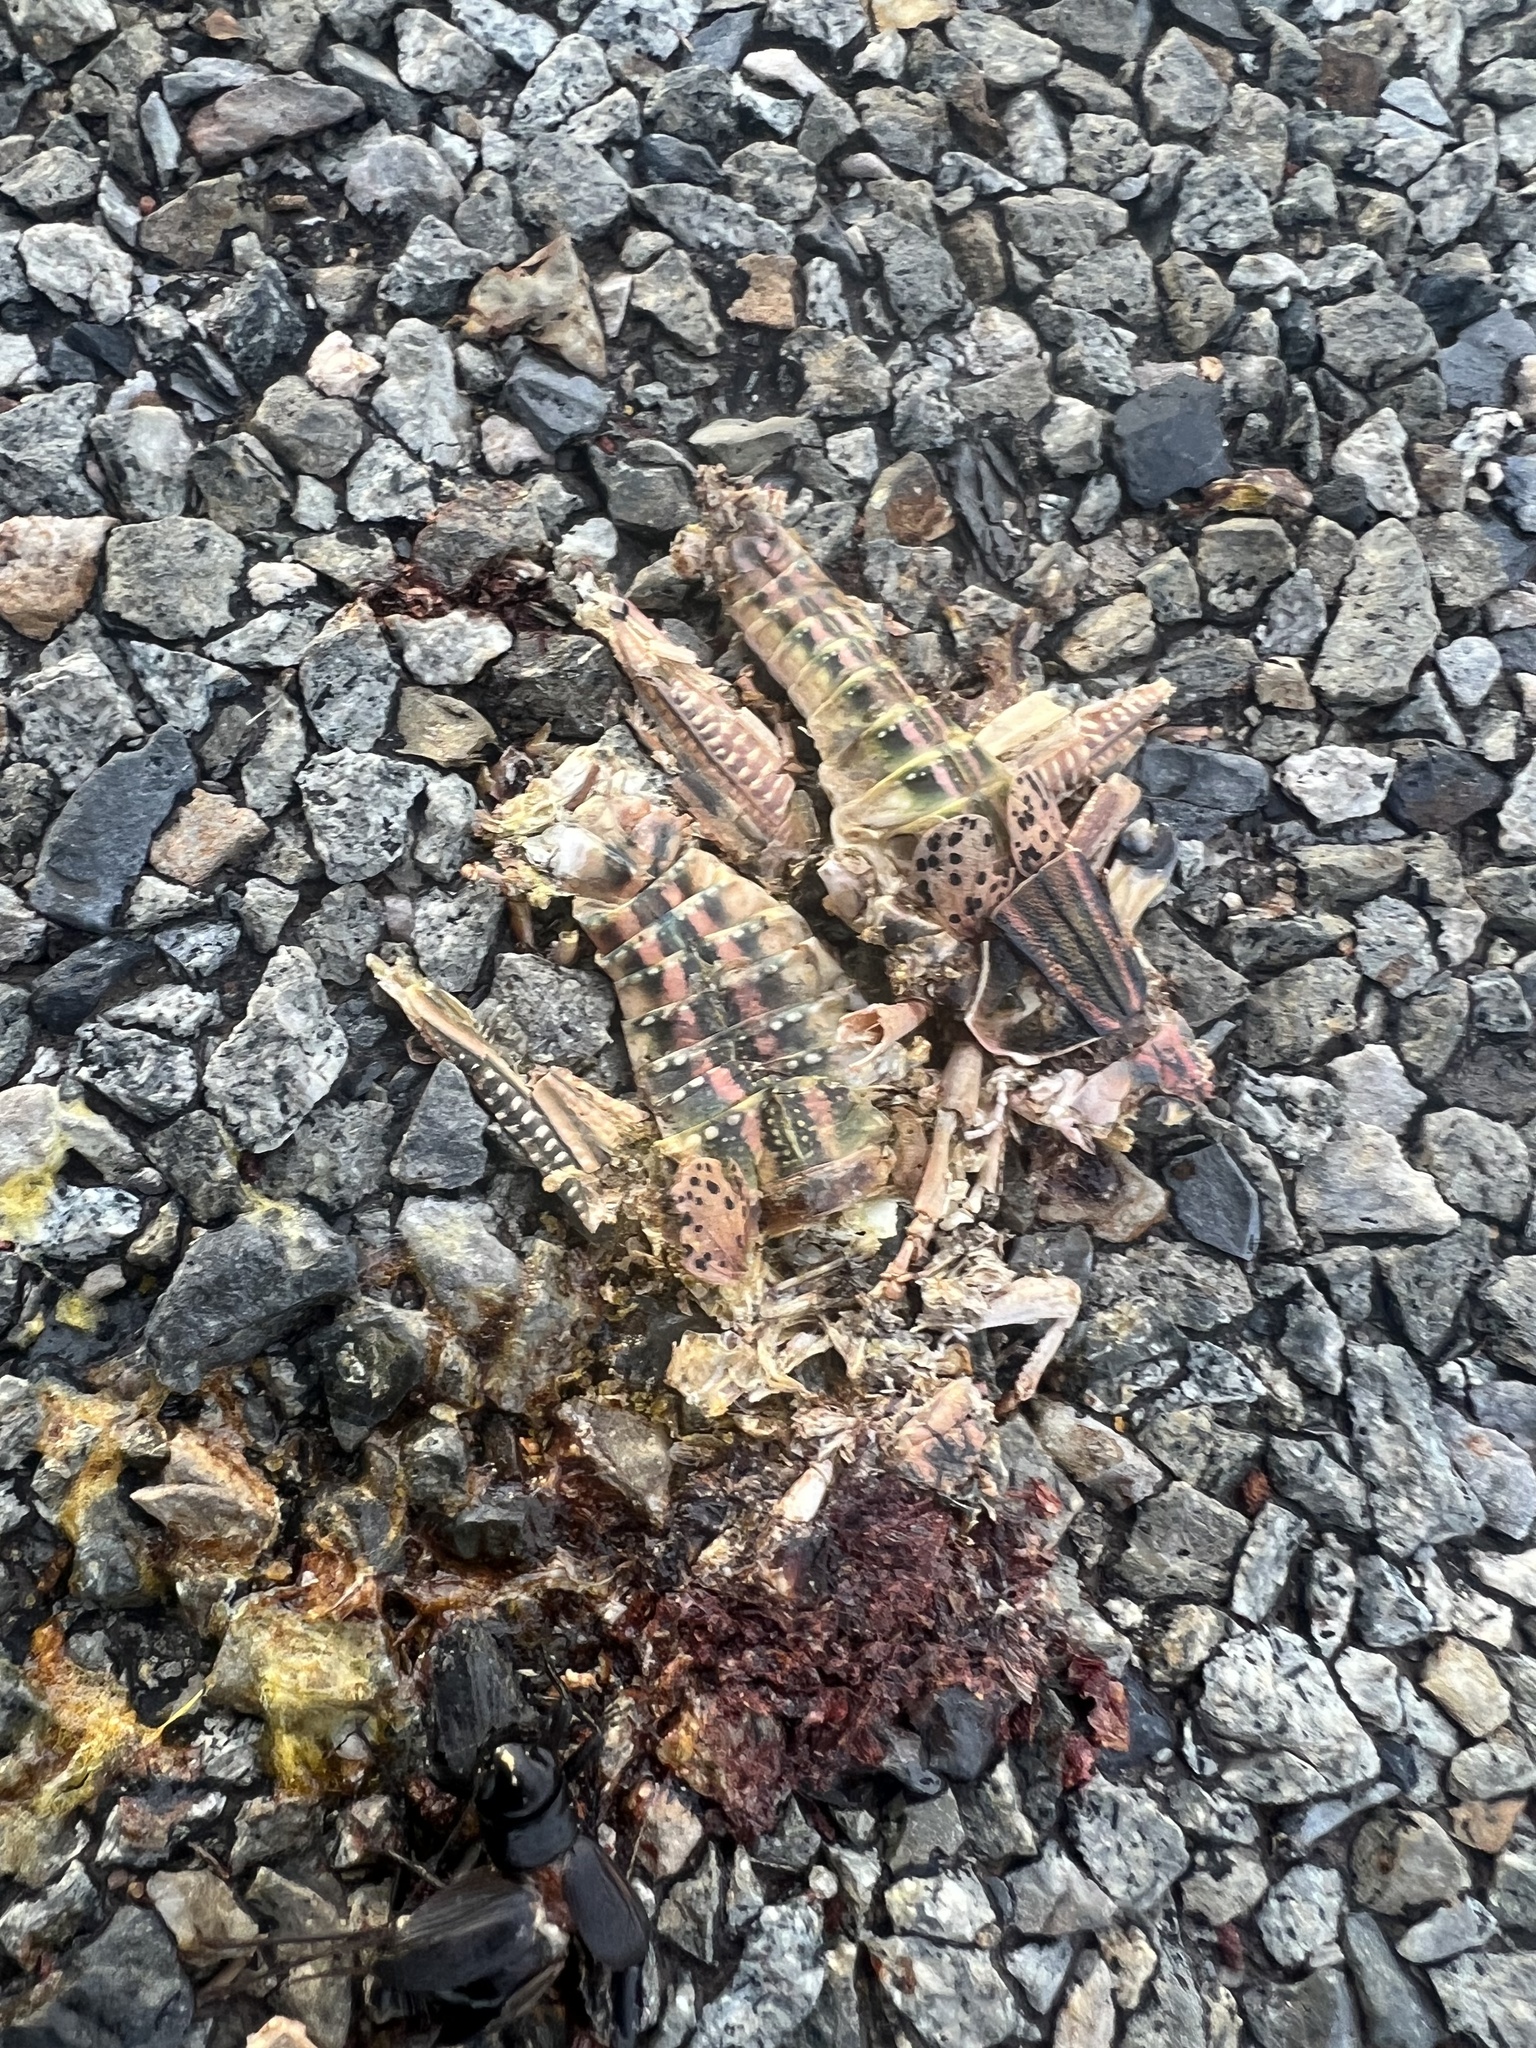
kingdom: Animalia
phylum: Arthropoda
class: Insecta
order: Orthoptera
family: Romaleidae
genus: Brachystola
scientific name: Brachystola magna
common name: Plains lubber grasshopper
